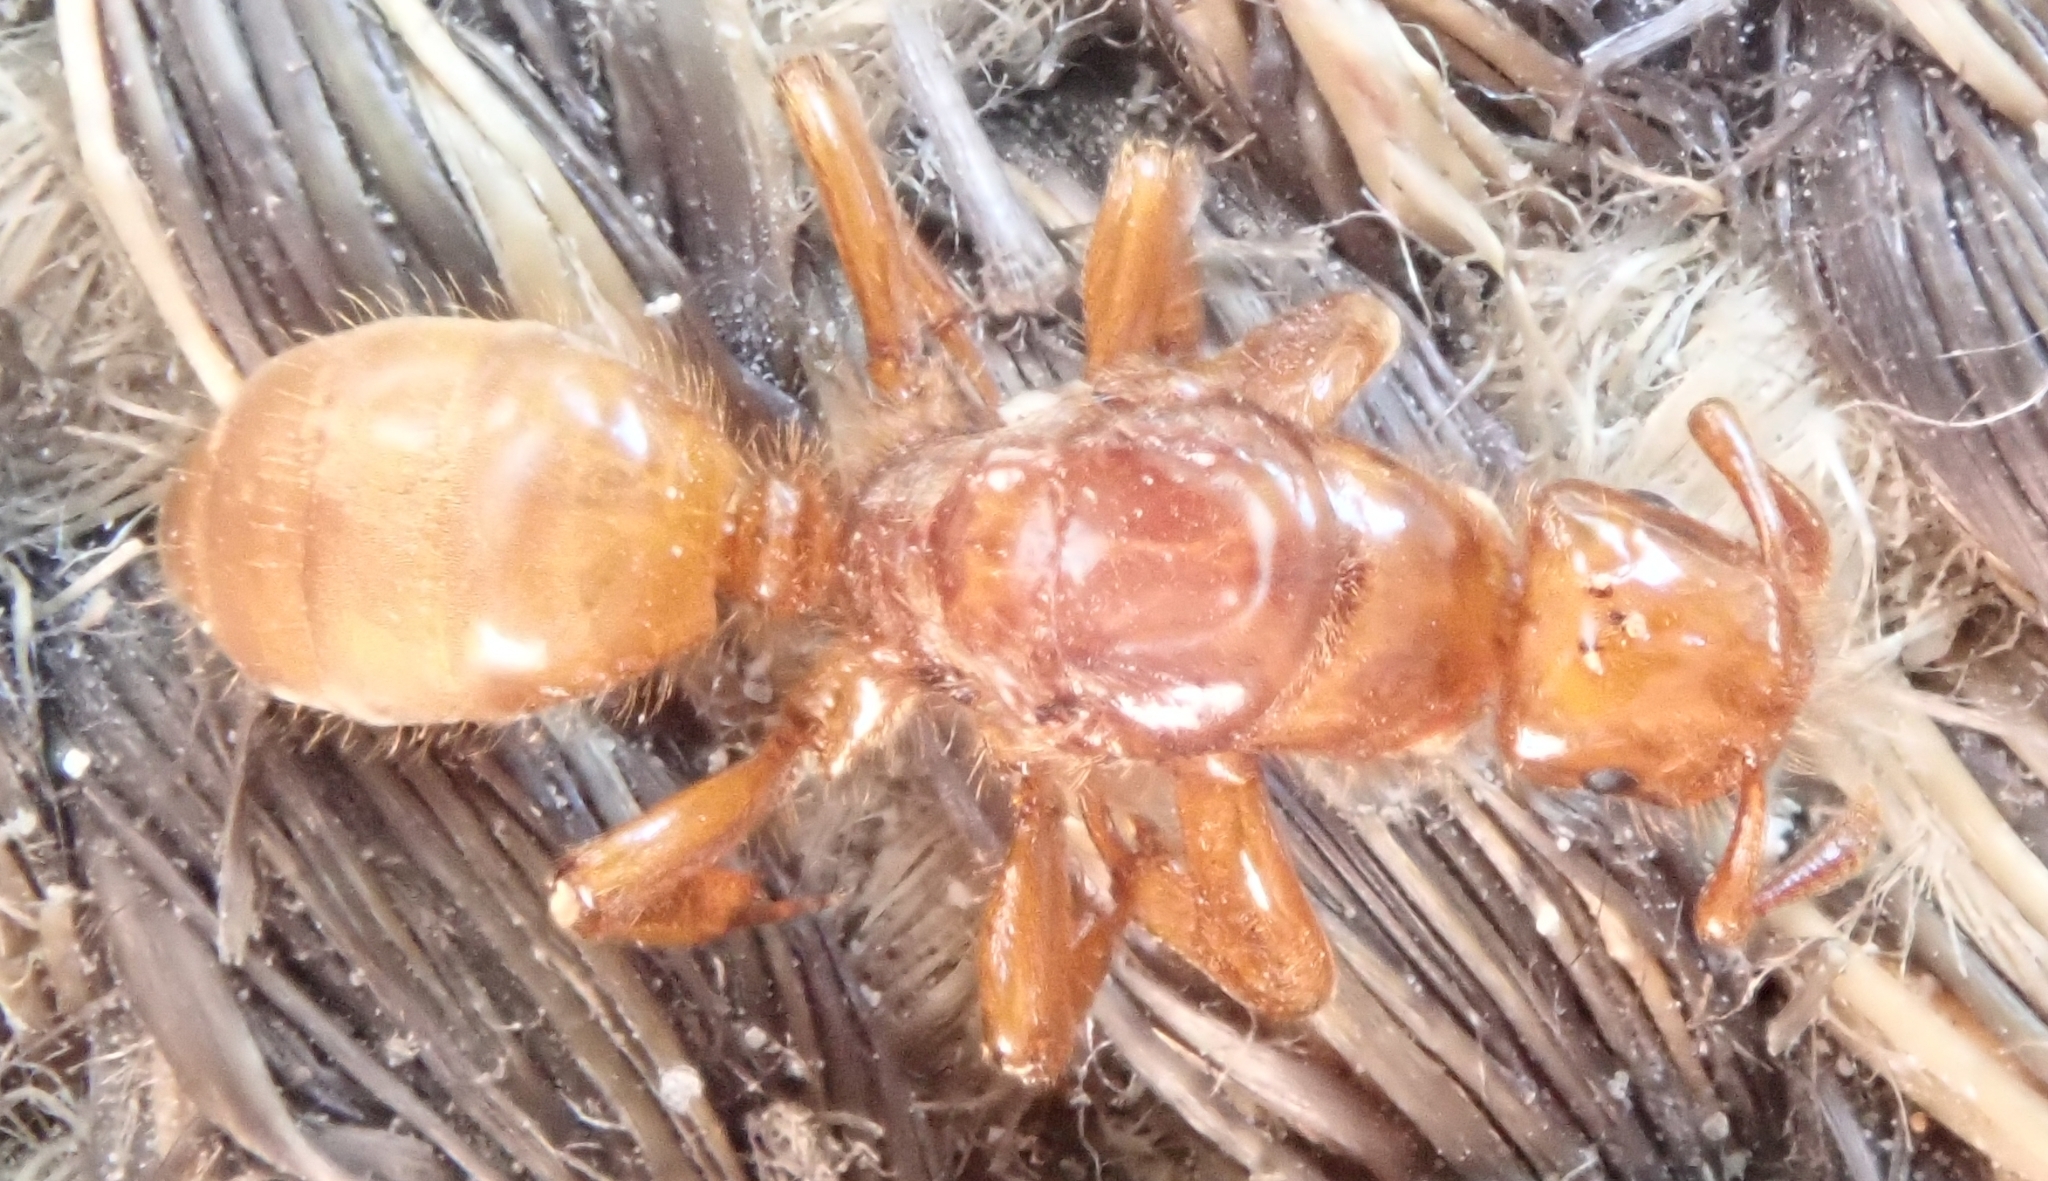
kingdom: Animalia
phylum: Arthropoda
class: Insecta
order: Hymenoptera
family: Formicidae
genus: Acanthomyops
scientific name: Acanthomyops latipes
